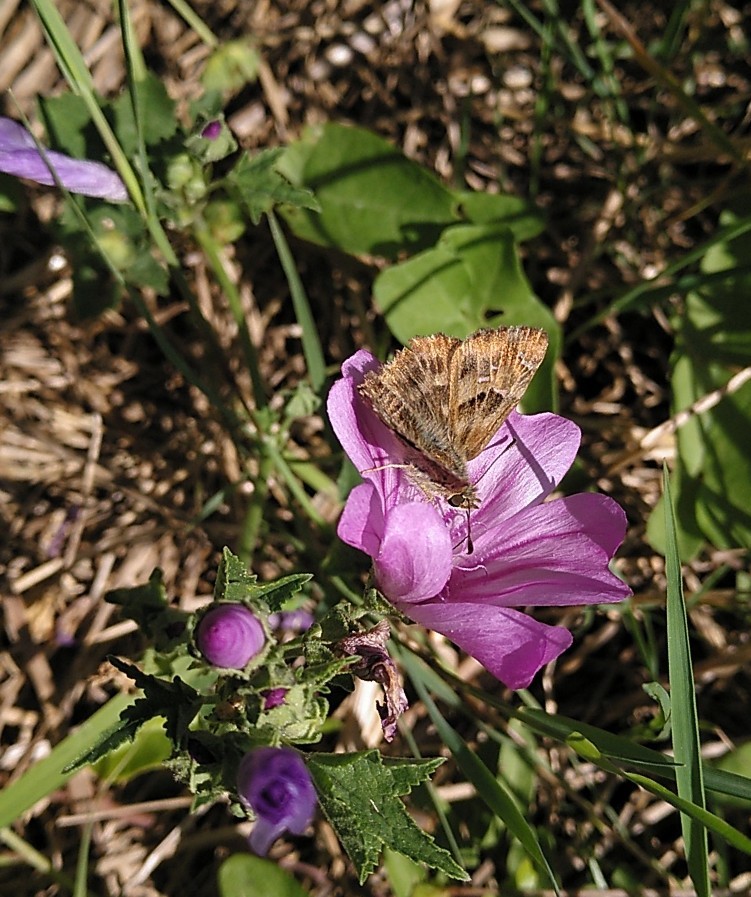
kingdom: Animalia
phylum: Arthropoda
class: Insecta
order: Lepidoptera
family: Hesperiidae
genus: Carcharodus
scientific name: Carcharodus alceae
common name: Mallow skipper
